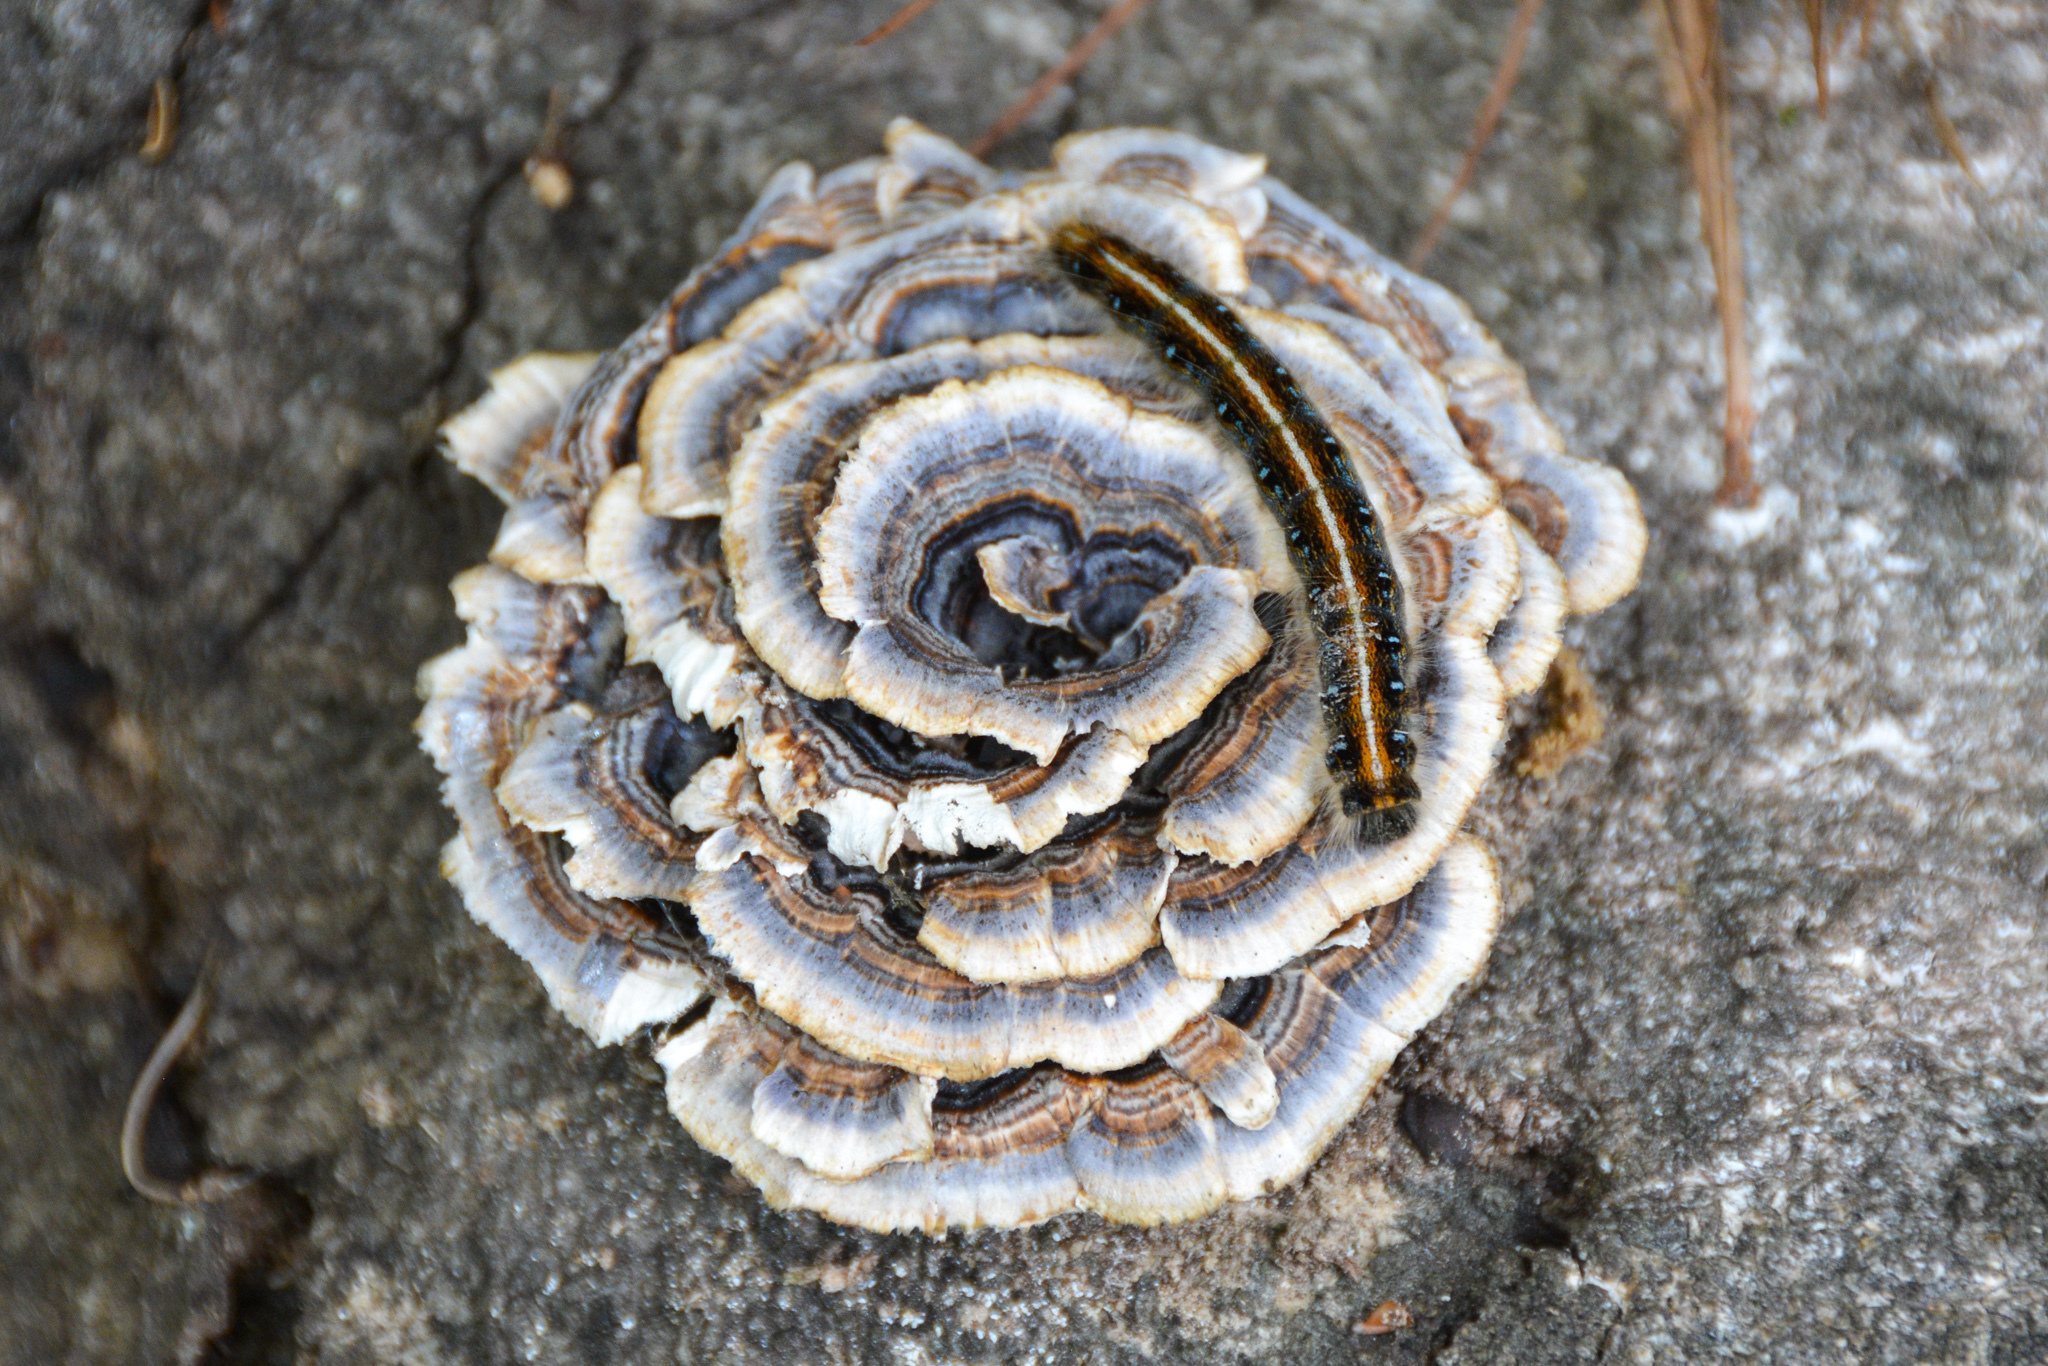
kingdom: Animalia
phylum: Arthropoda
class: Insecta
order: Lepidoptera
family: Lasiocampidae
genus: Malacosoma
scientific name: Malacosoma americana
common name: Eastern tent caterpillar moth
